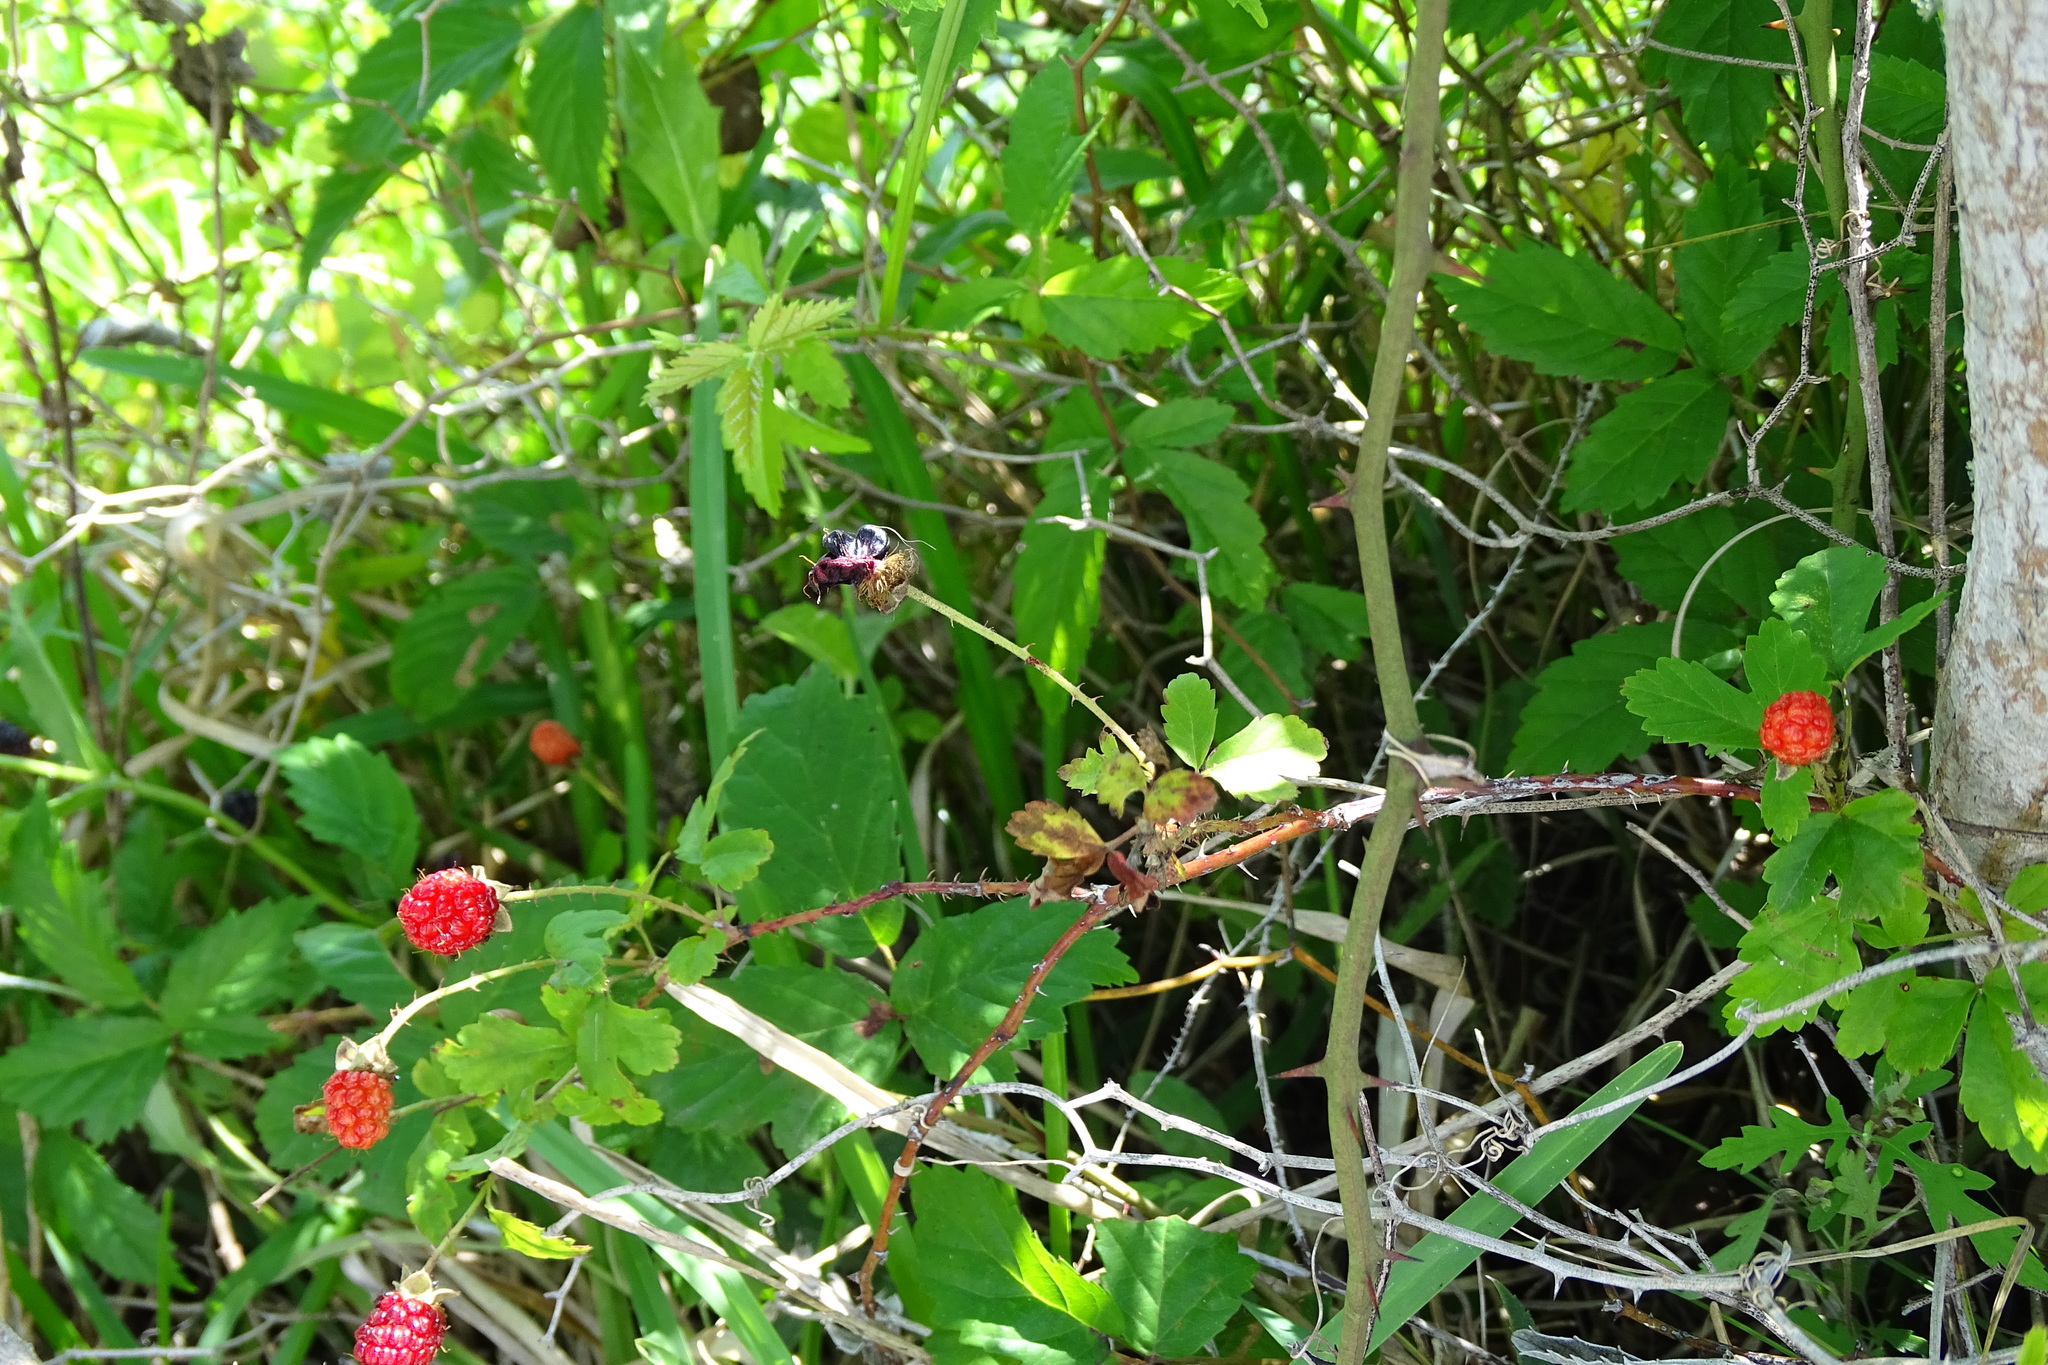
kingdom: Plantae
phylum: Tracheophyta
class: Magnoliopsida
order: Rosales
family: Rosaceae
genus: Rubus
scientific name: Rubus trivialis
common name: Southern dewberry
